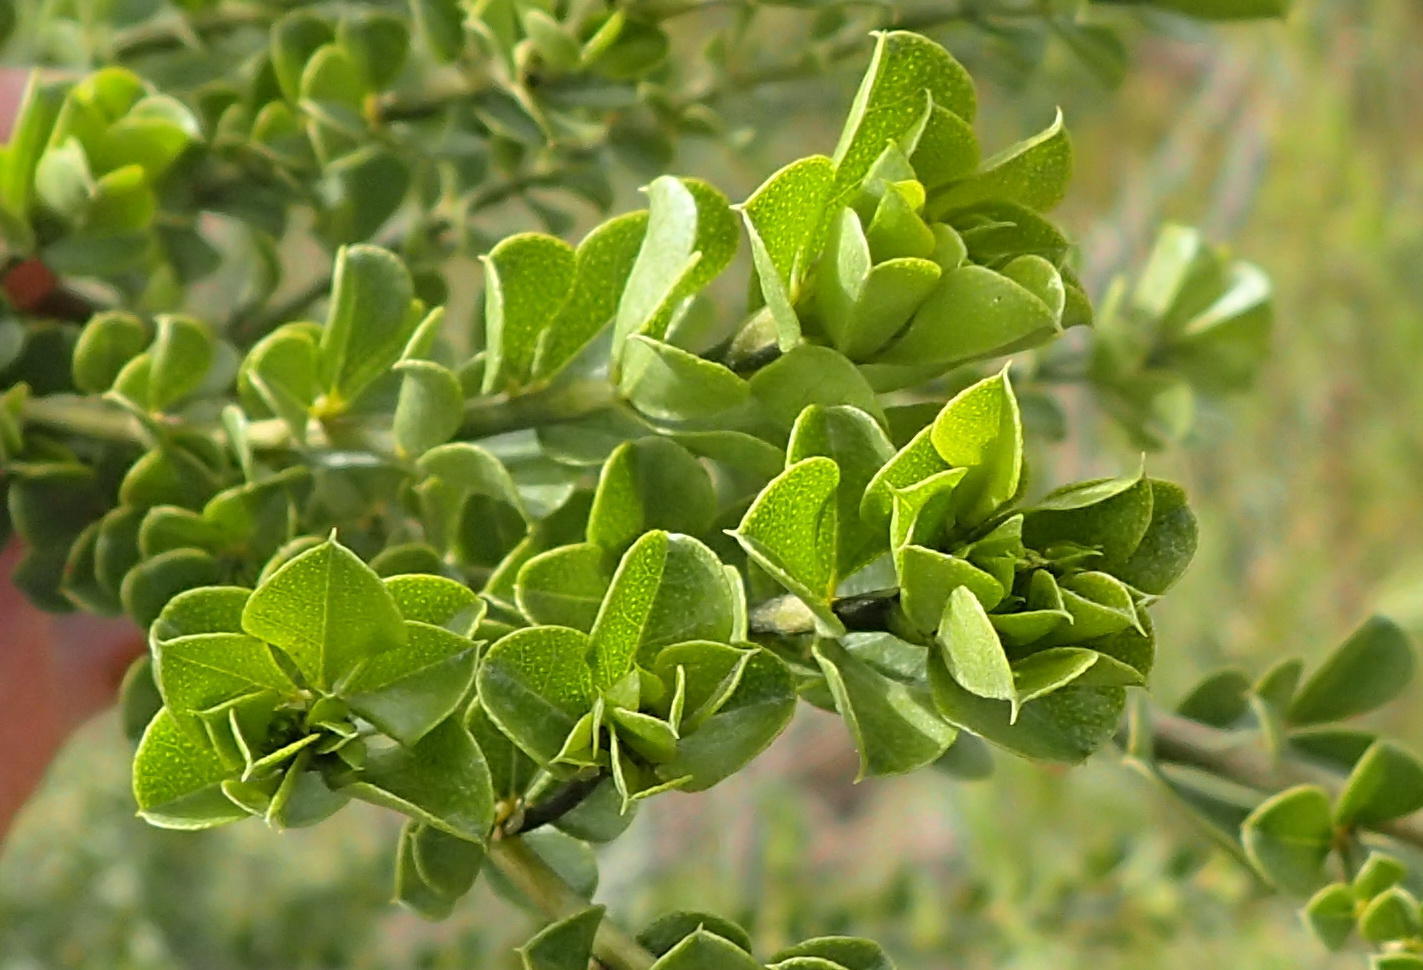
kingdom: Plantae
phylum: Tracheophyta
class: Magnoliopsida
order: Fabales
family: Fabaceae
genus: Psoralea
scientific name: Psoralea stachyera
